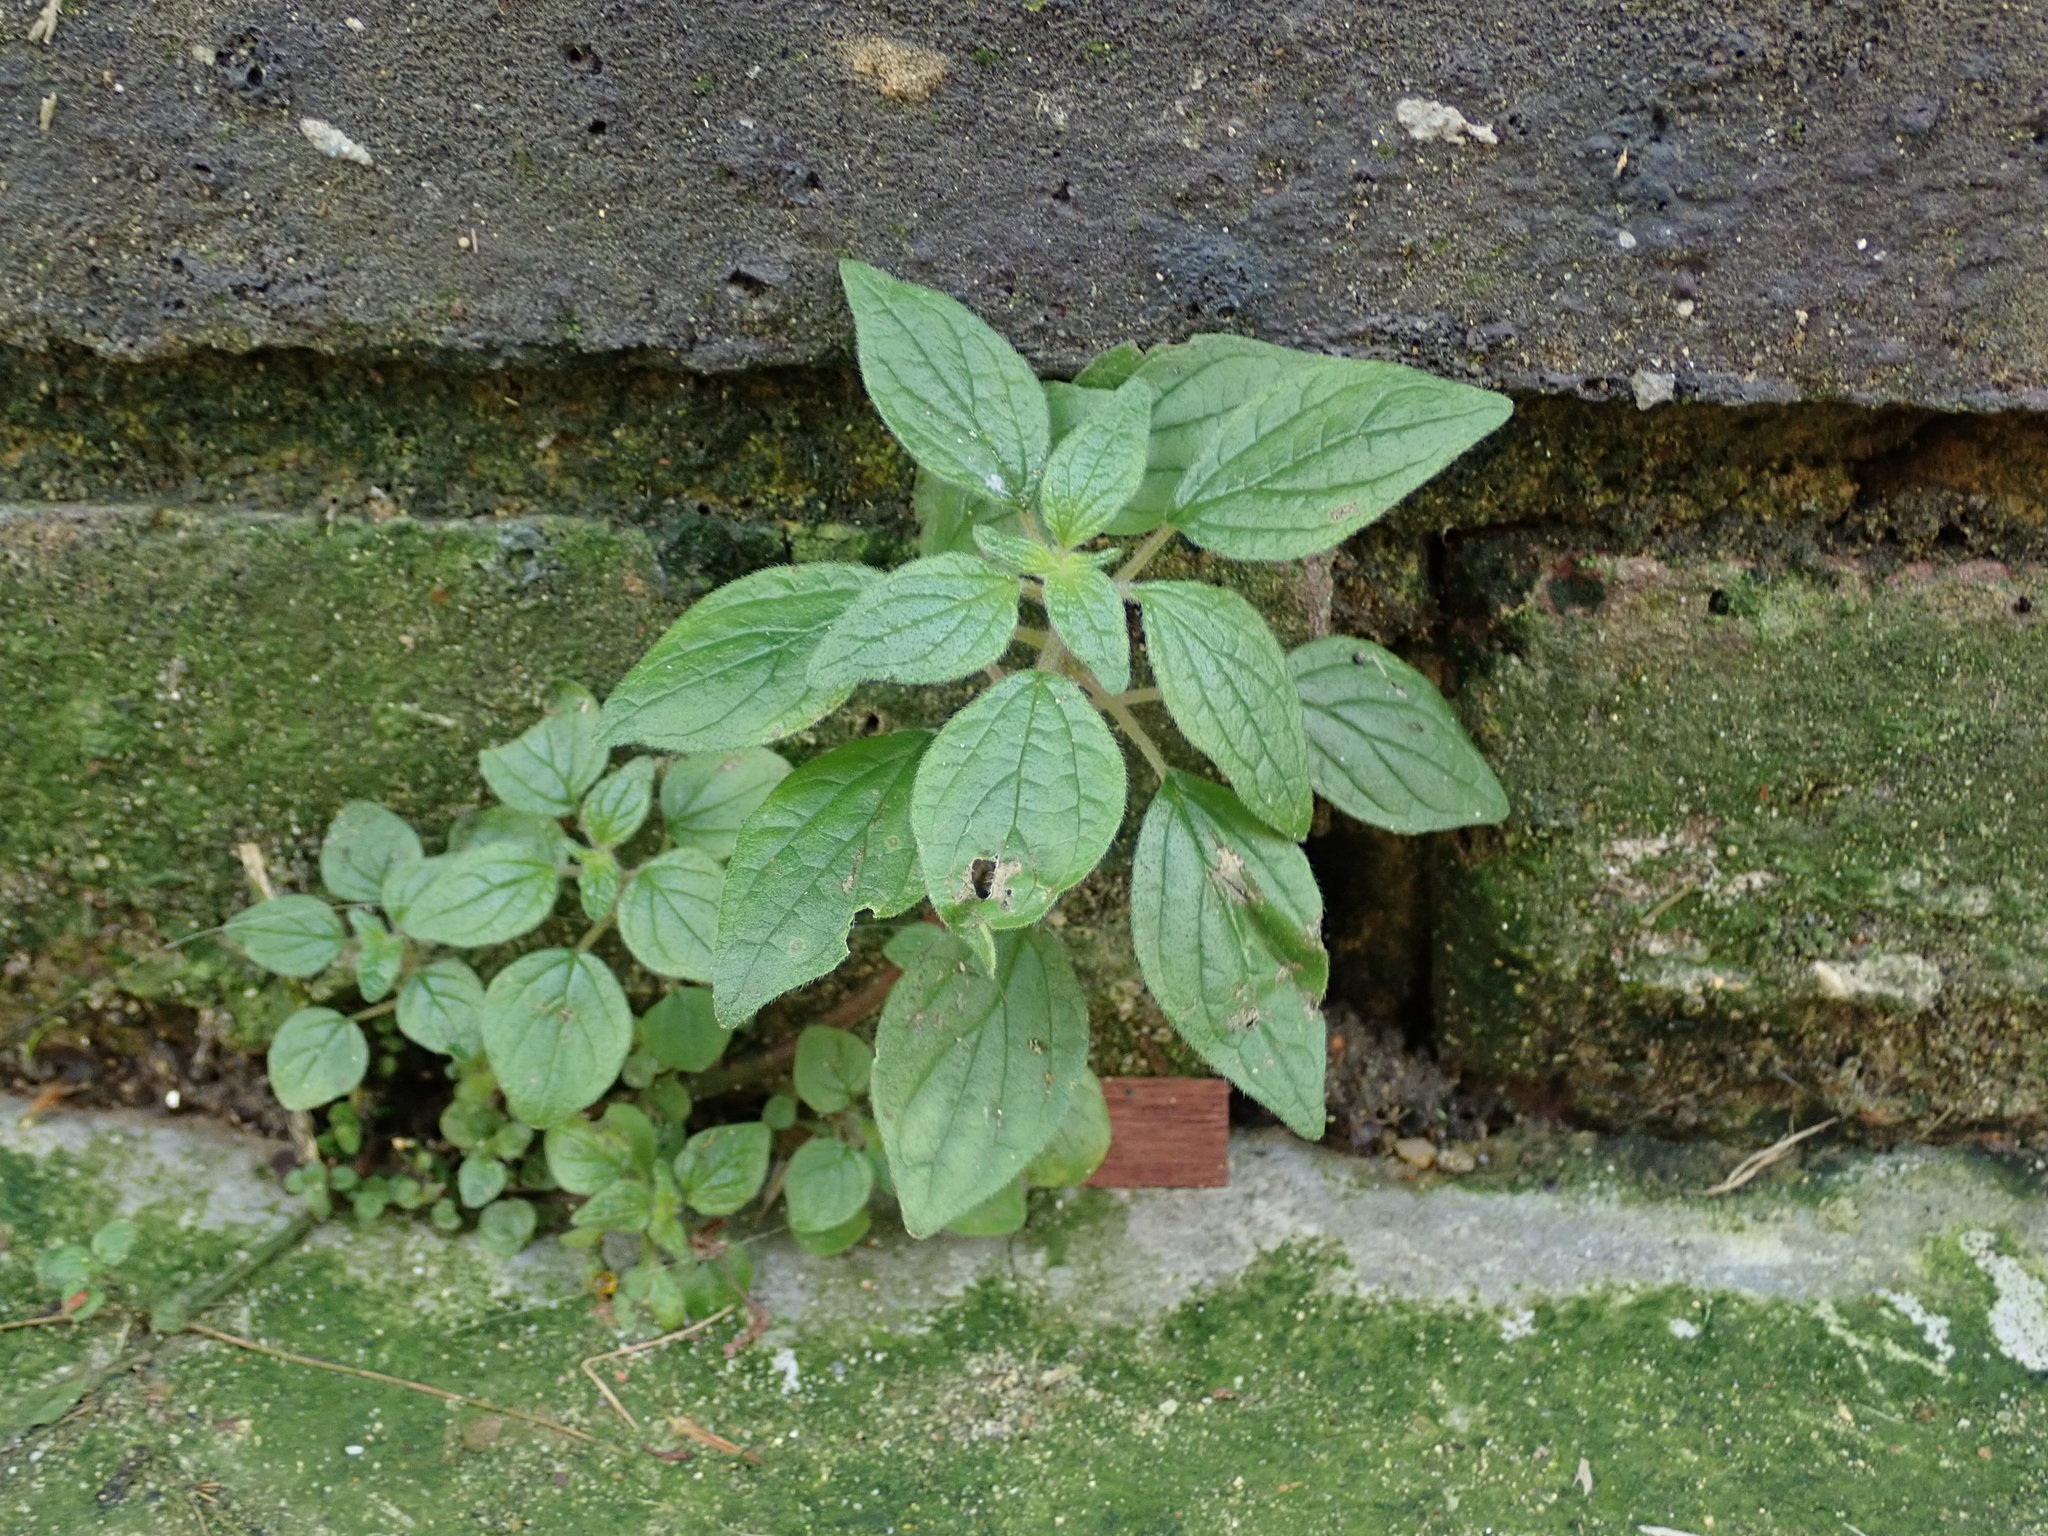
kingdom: Plantae
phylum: Tracheophyta
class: Magnoliopsida
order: Rosales
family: Urticaceae
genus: Parietaria
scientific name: Parietaria judaica
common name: Pellitory-of-the-wall
